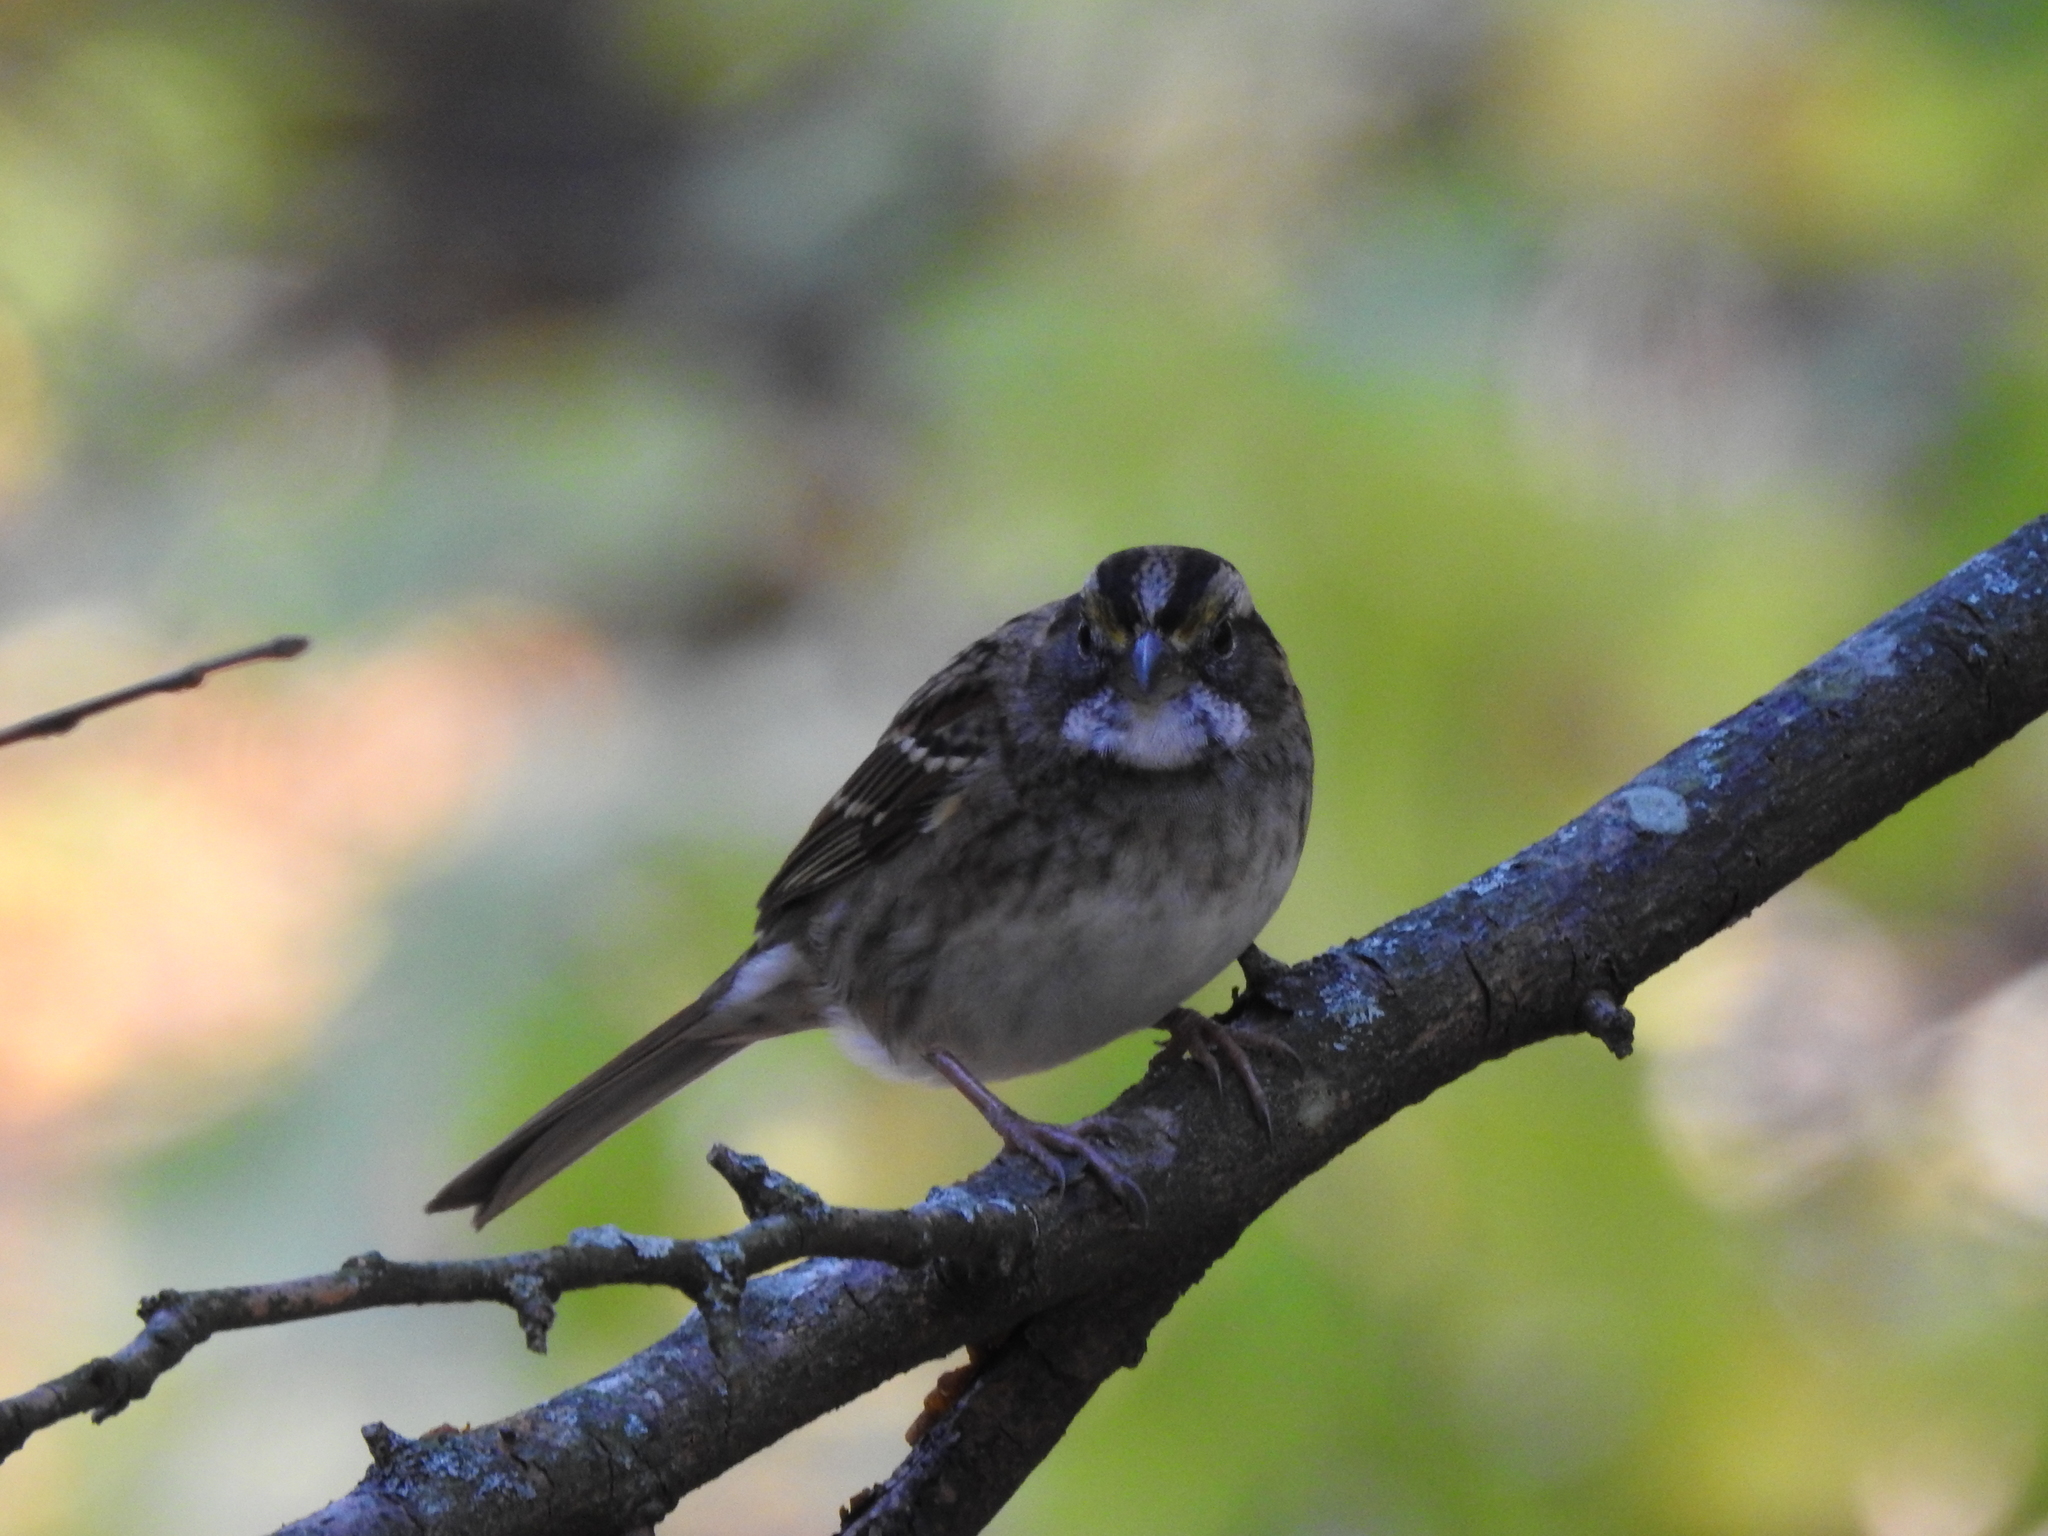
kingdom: Animalia
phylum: Chordata
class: Aves
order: Passeriformes
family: Passerellidae
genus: Zonotrichia
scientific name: Zonotrichia albicollis
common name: White-throated sparrow
